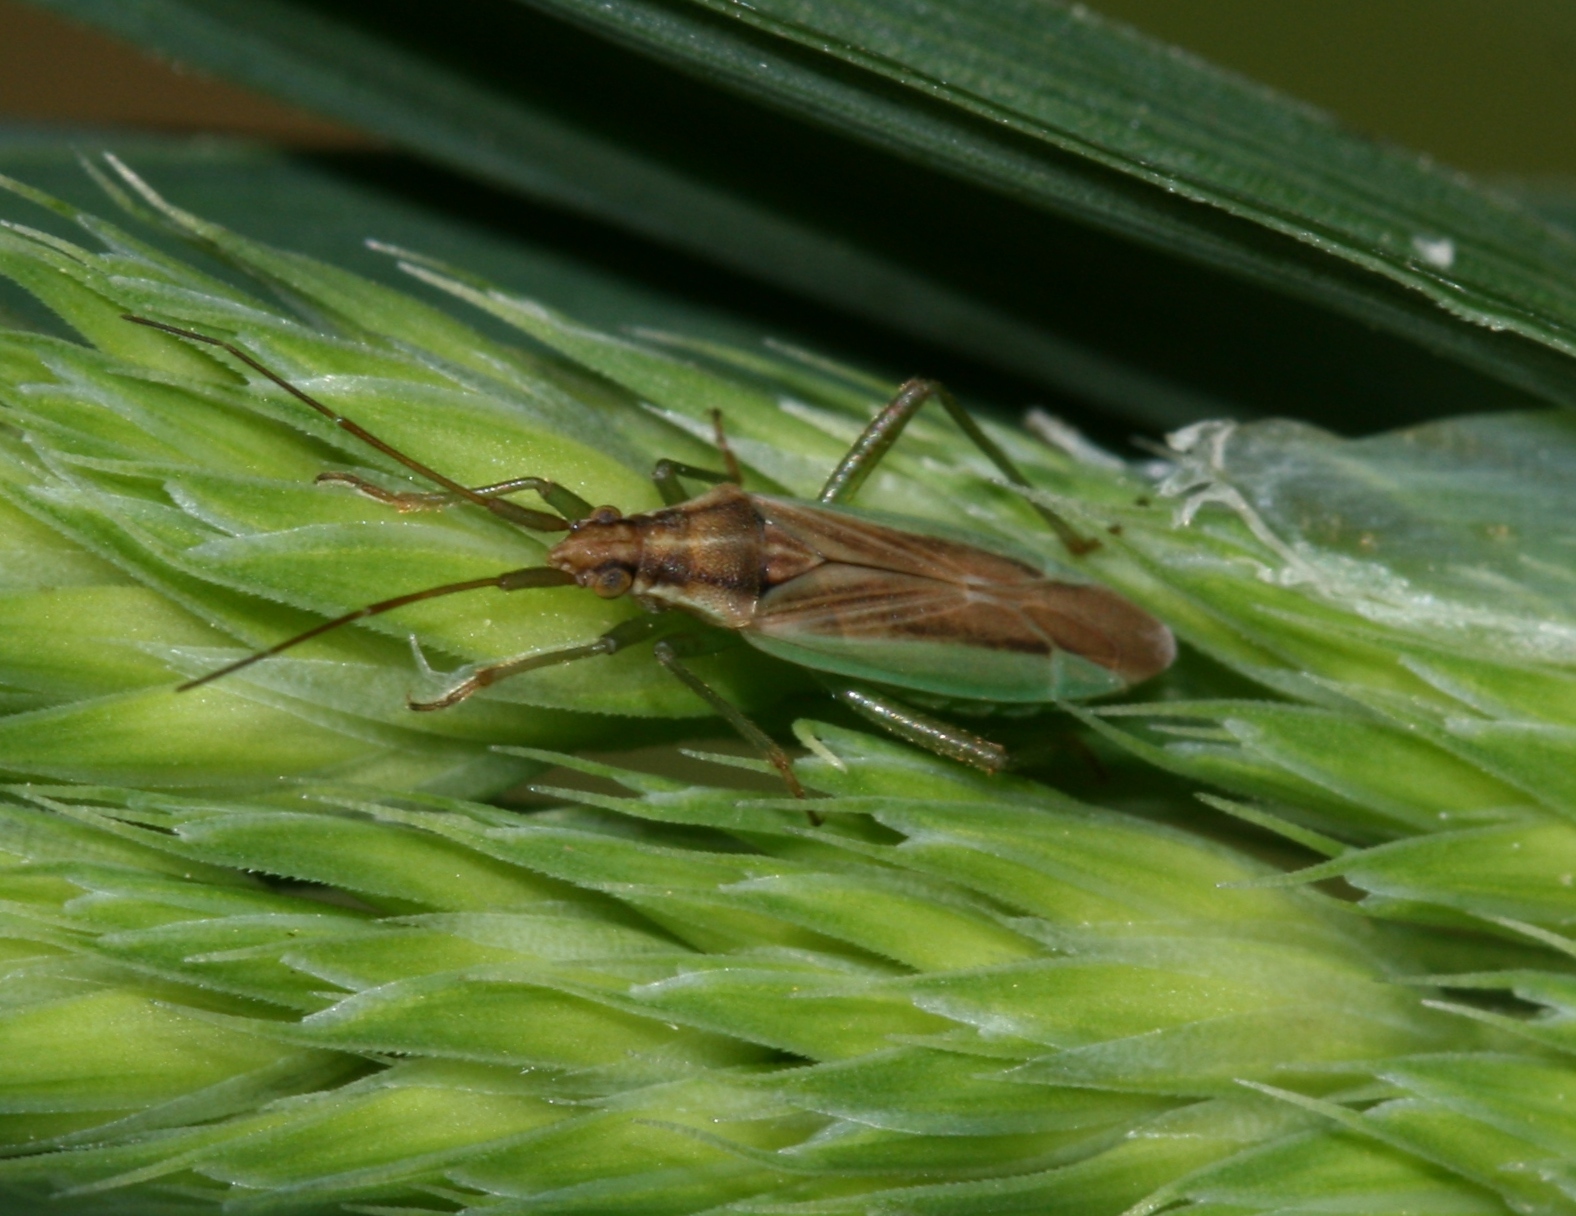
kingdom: Animalia
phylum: Arthropoda
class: Insecta
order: Hemiptera
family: Miridae
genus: Stenodema
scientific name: Stenodema holsata
